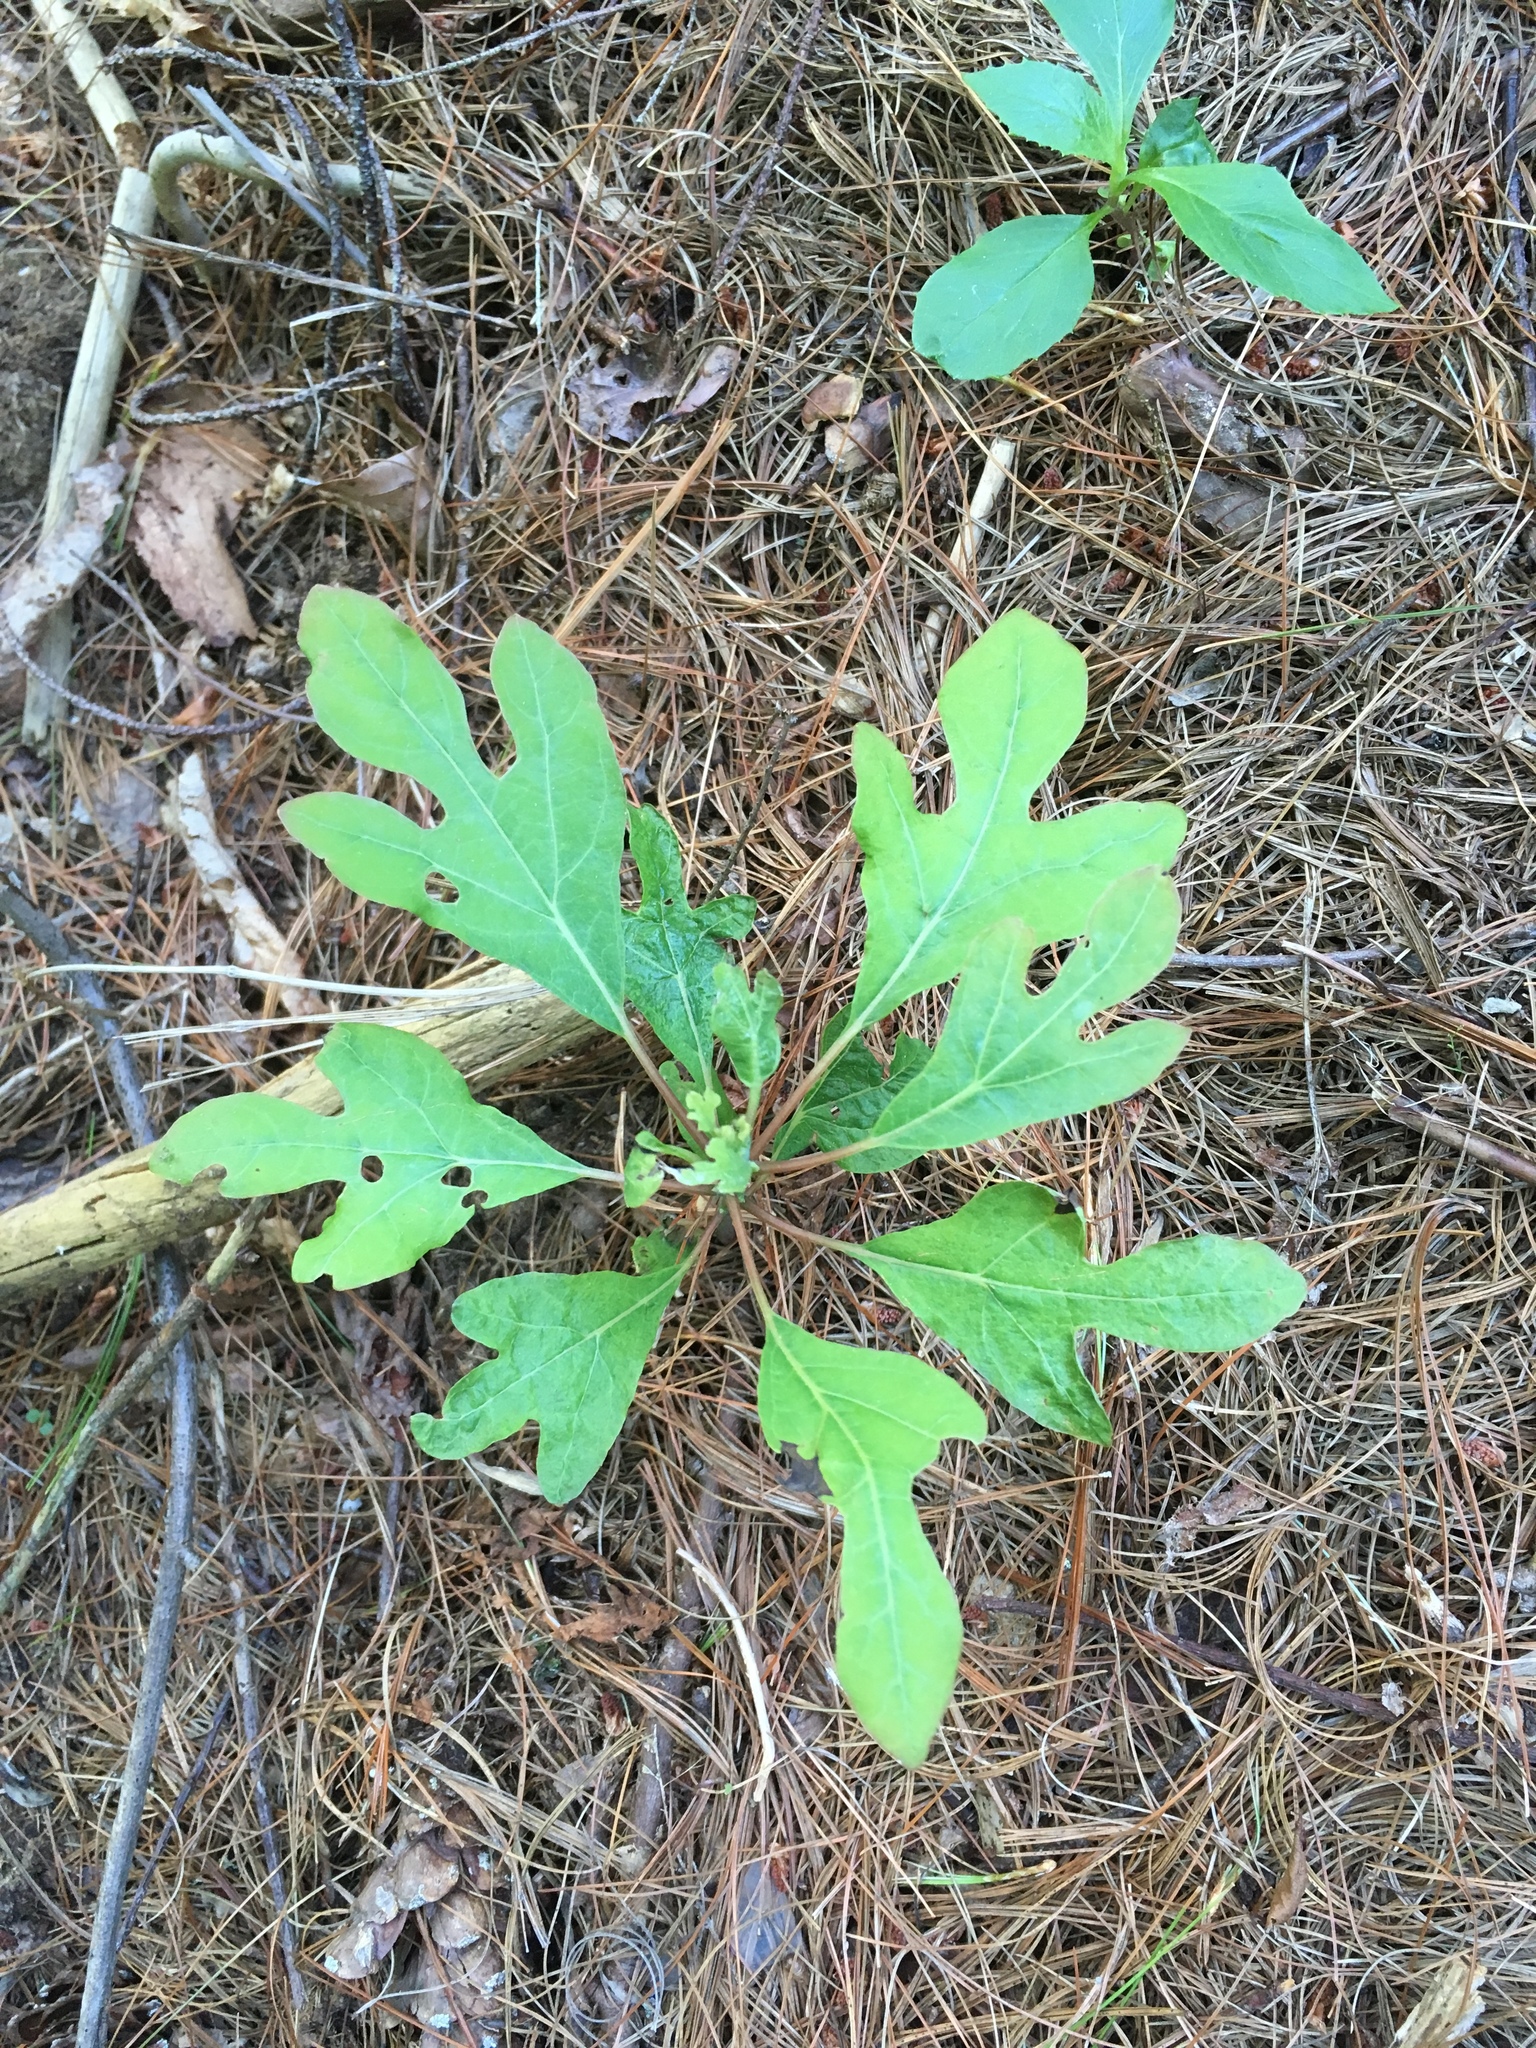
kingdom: Plantae
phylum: Tracheophyta
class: Magnoliopsida
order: Laurales
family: Lauraceae
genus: Sassafras
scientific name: Sassafras albidum
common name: Sassafras
